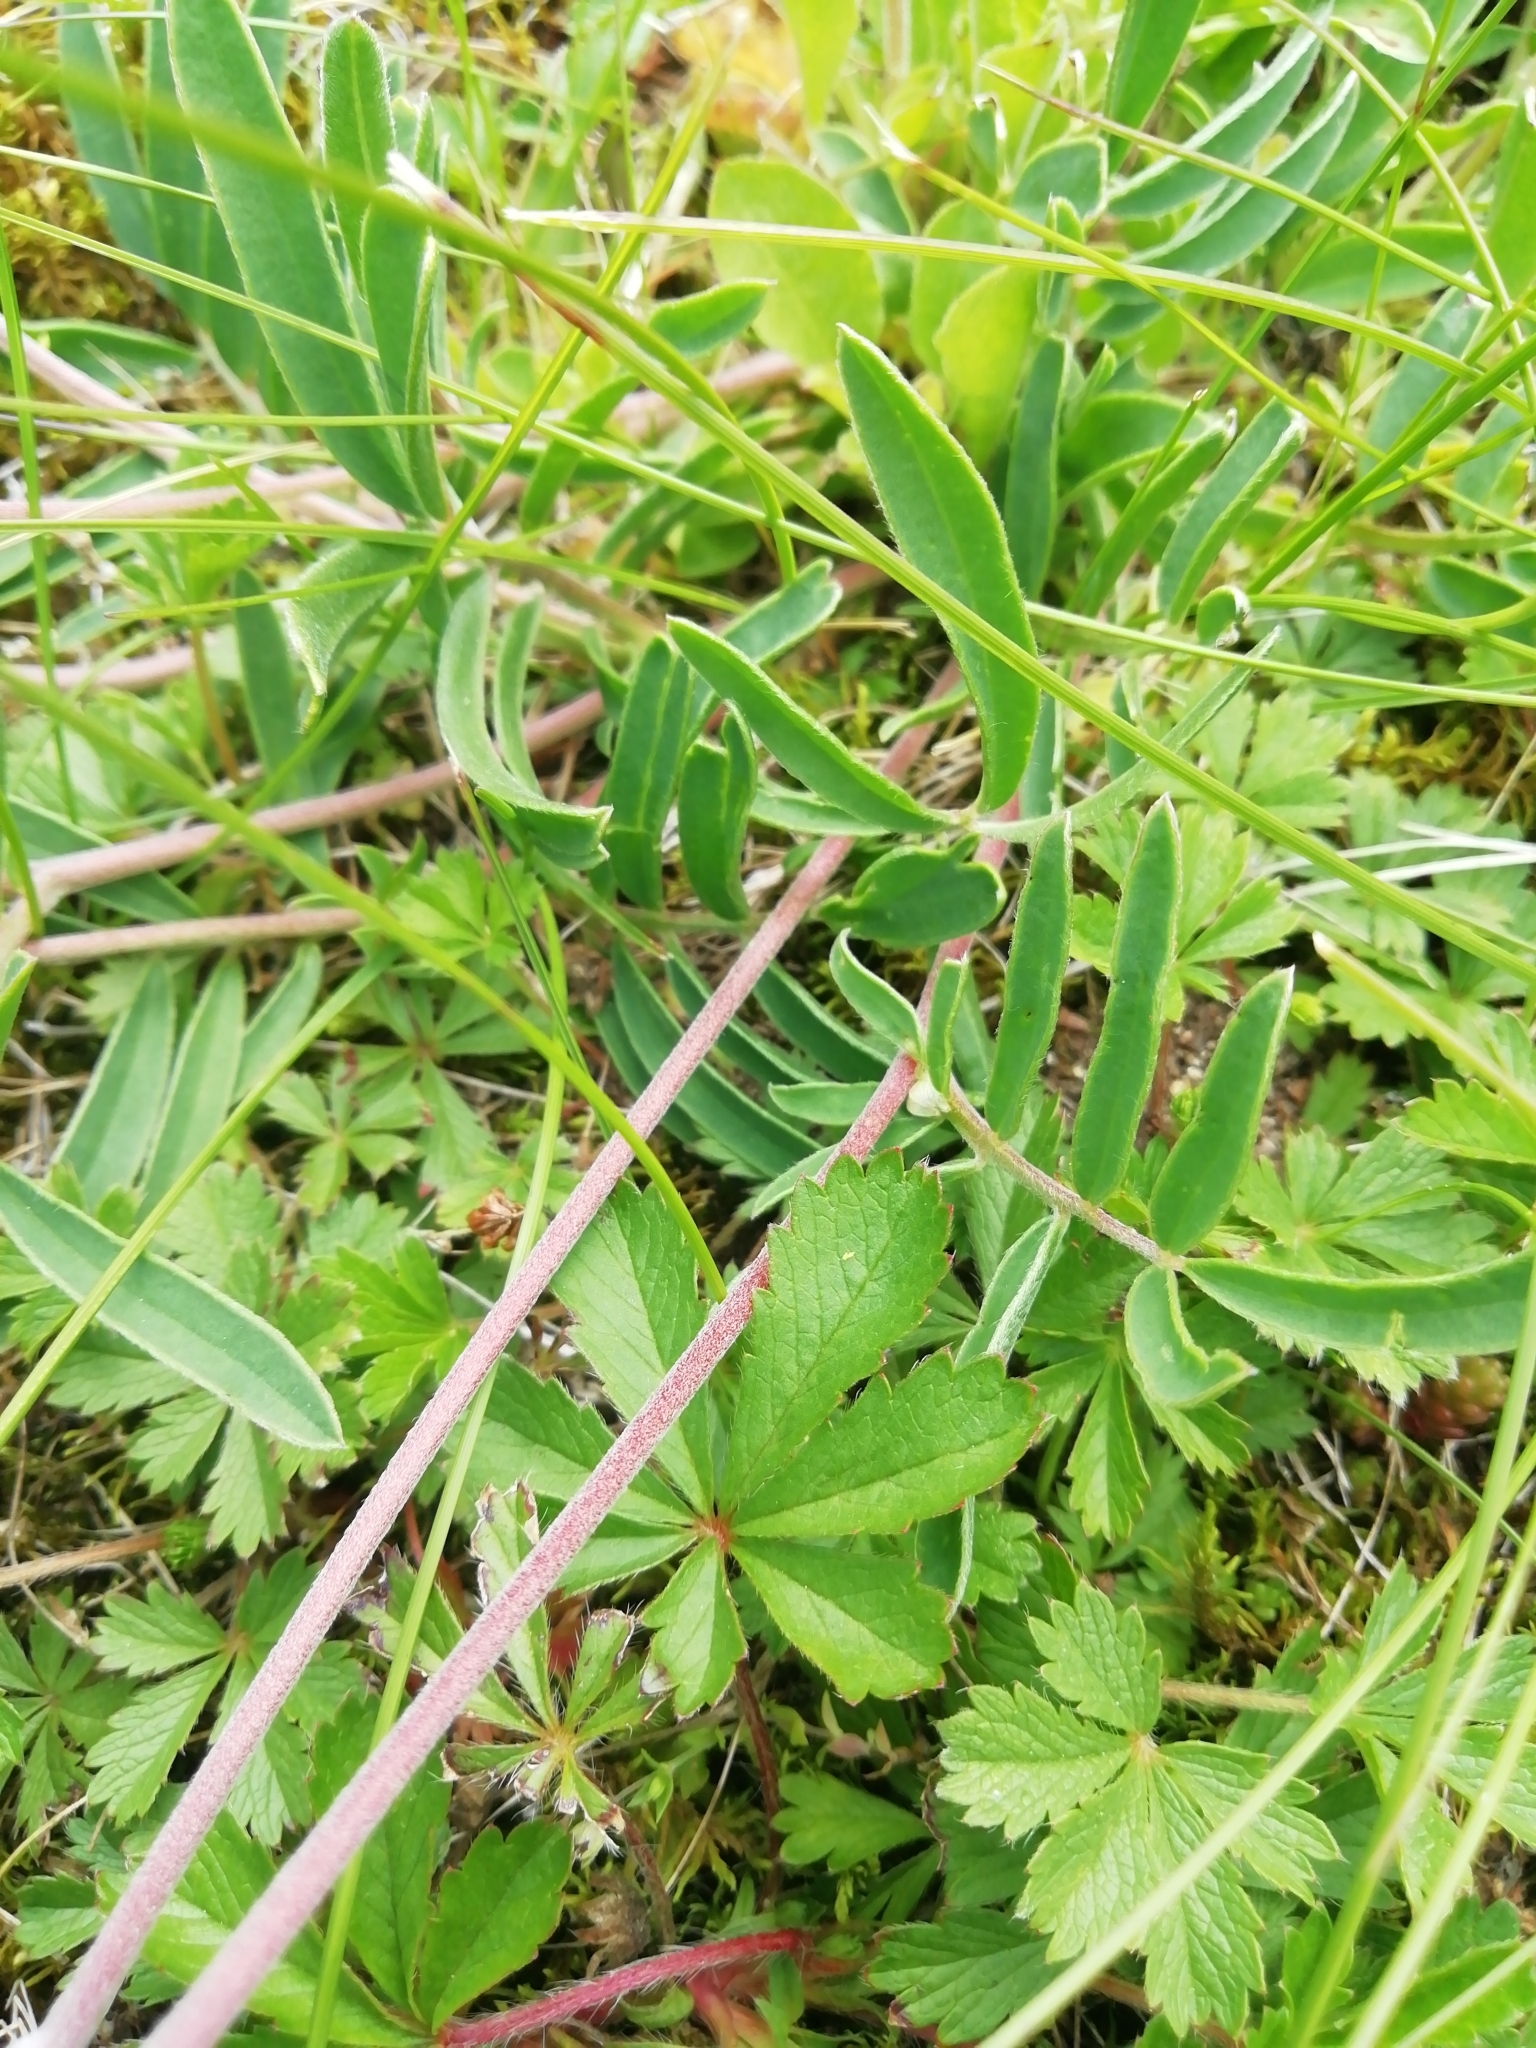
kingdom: Plantae
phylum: Tracheophyta
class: Magnoliopsida
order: Fabales
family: Fabaceae
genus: Anthyllis
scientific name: Anthyllis vulneraria
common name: Kidney vetch
